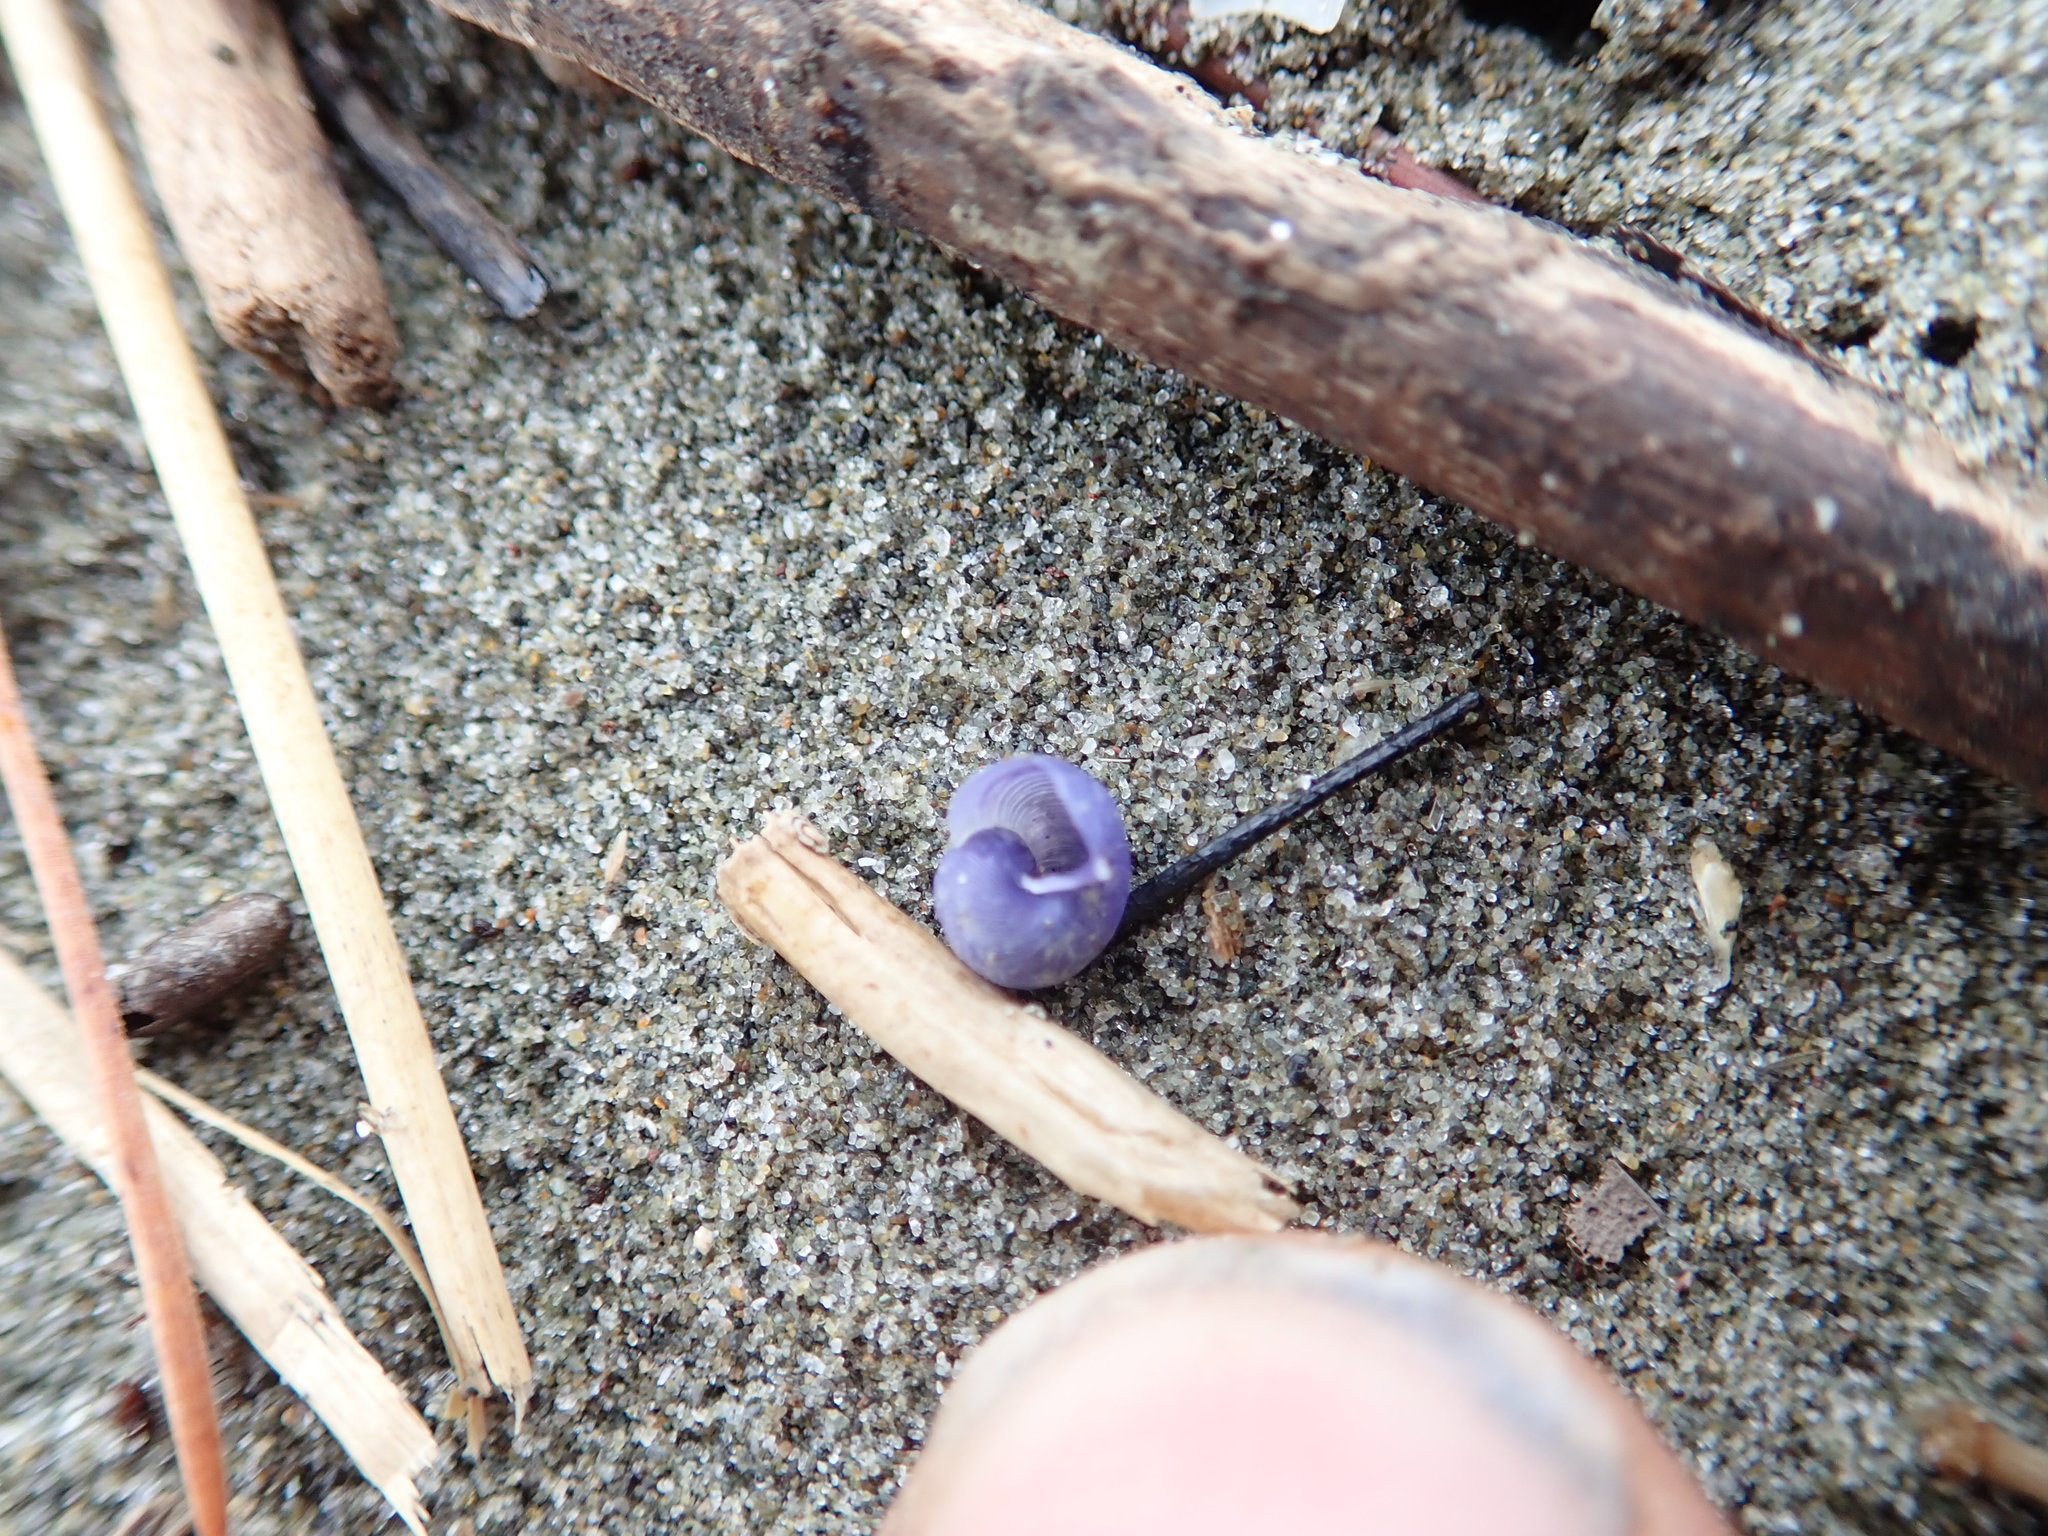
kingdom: Animalia
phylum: Mollusca
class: Gastropoda
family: Epitoniidae
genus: Janthina
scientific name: Janthina exigua
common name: Dwarf janthina
